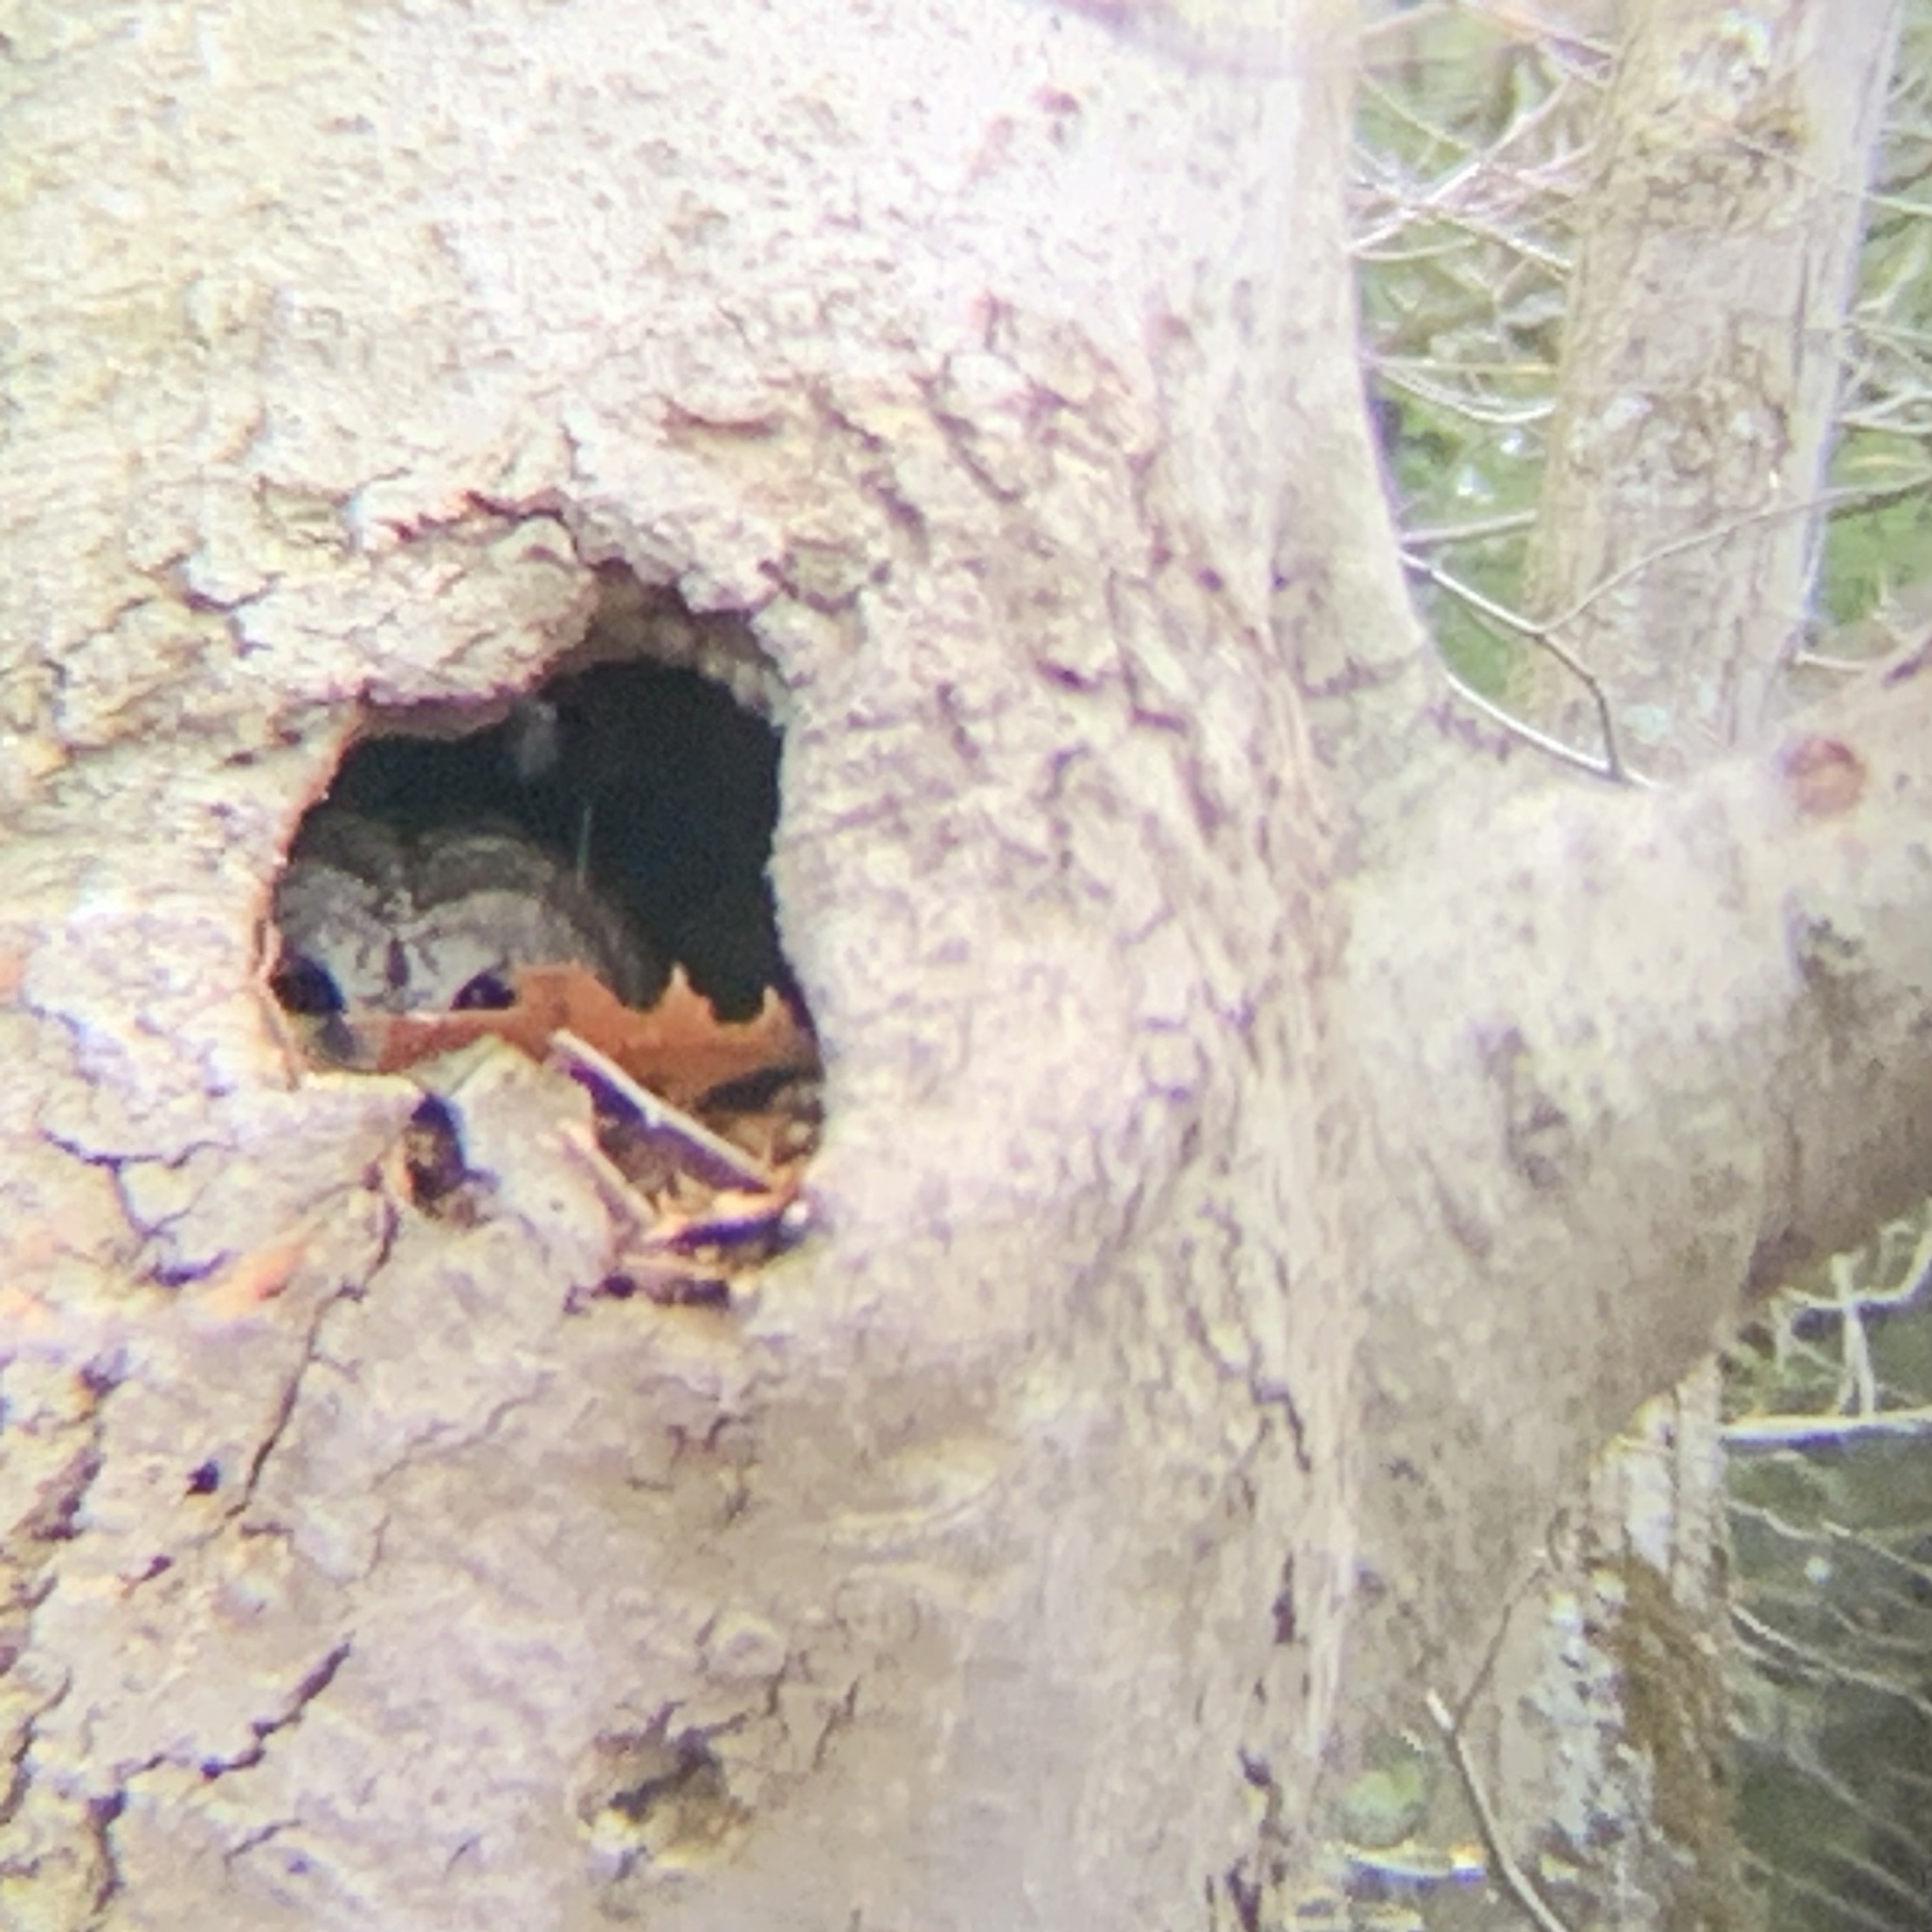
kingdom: Animalia
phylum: Chordata
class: Aves
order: Strigiformes
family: Strigidae
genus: Strix
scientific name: Strix varia
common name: Barred owl
